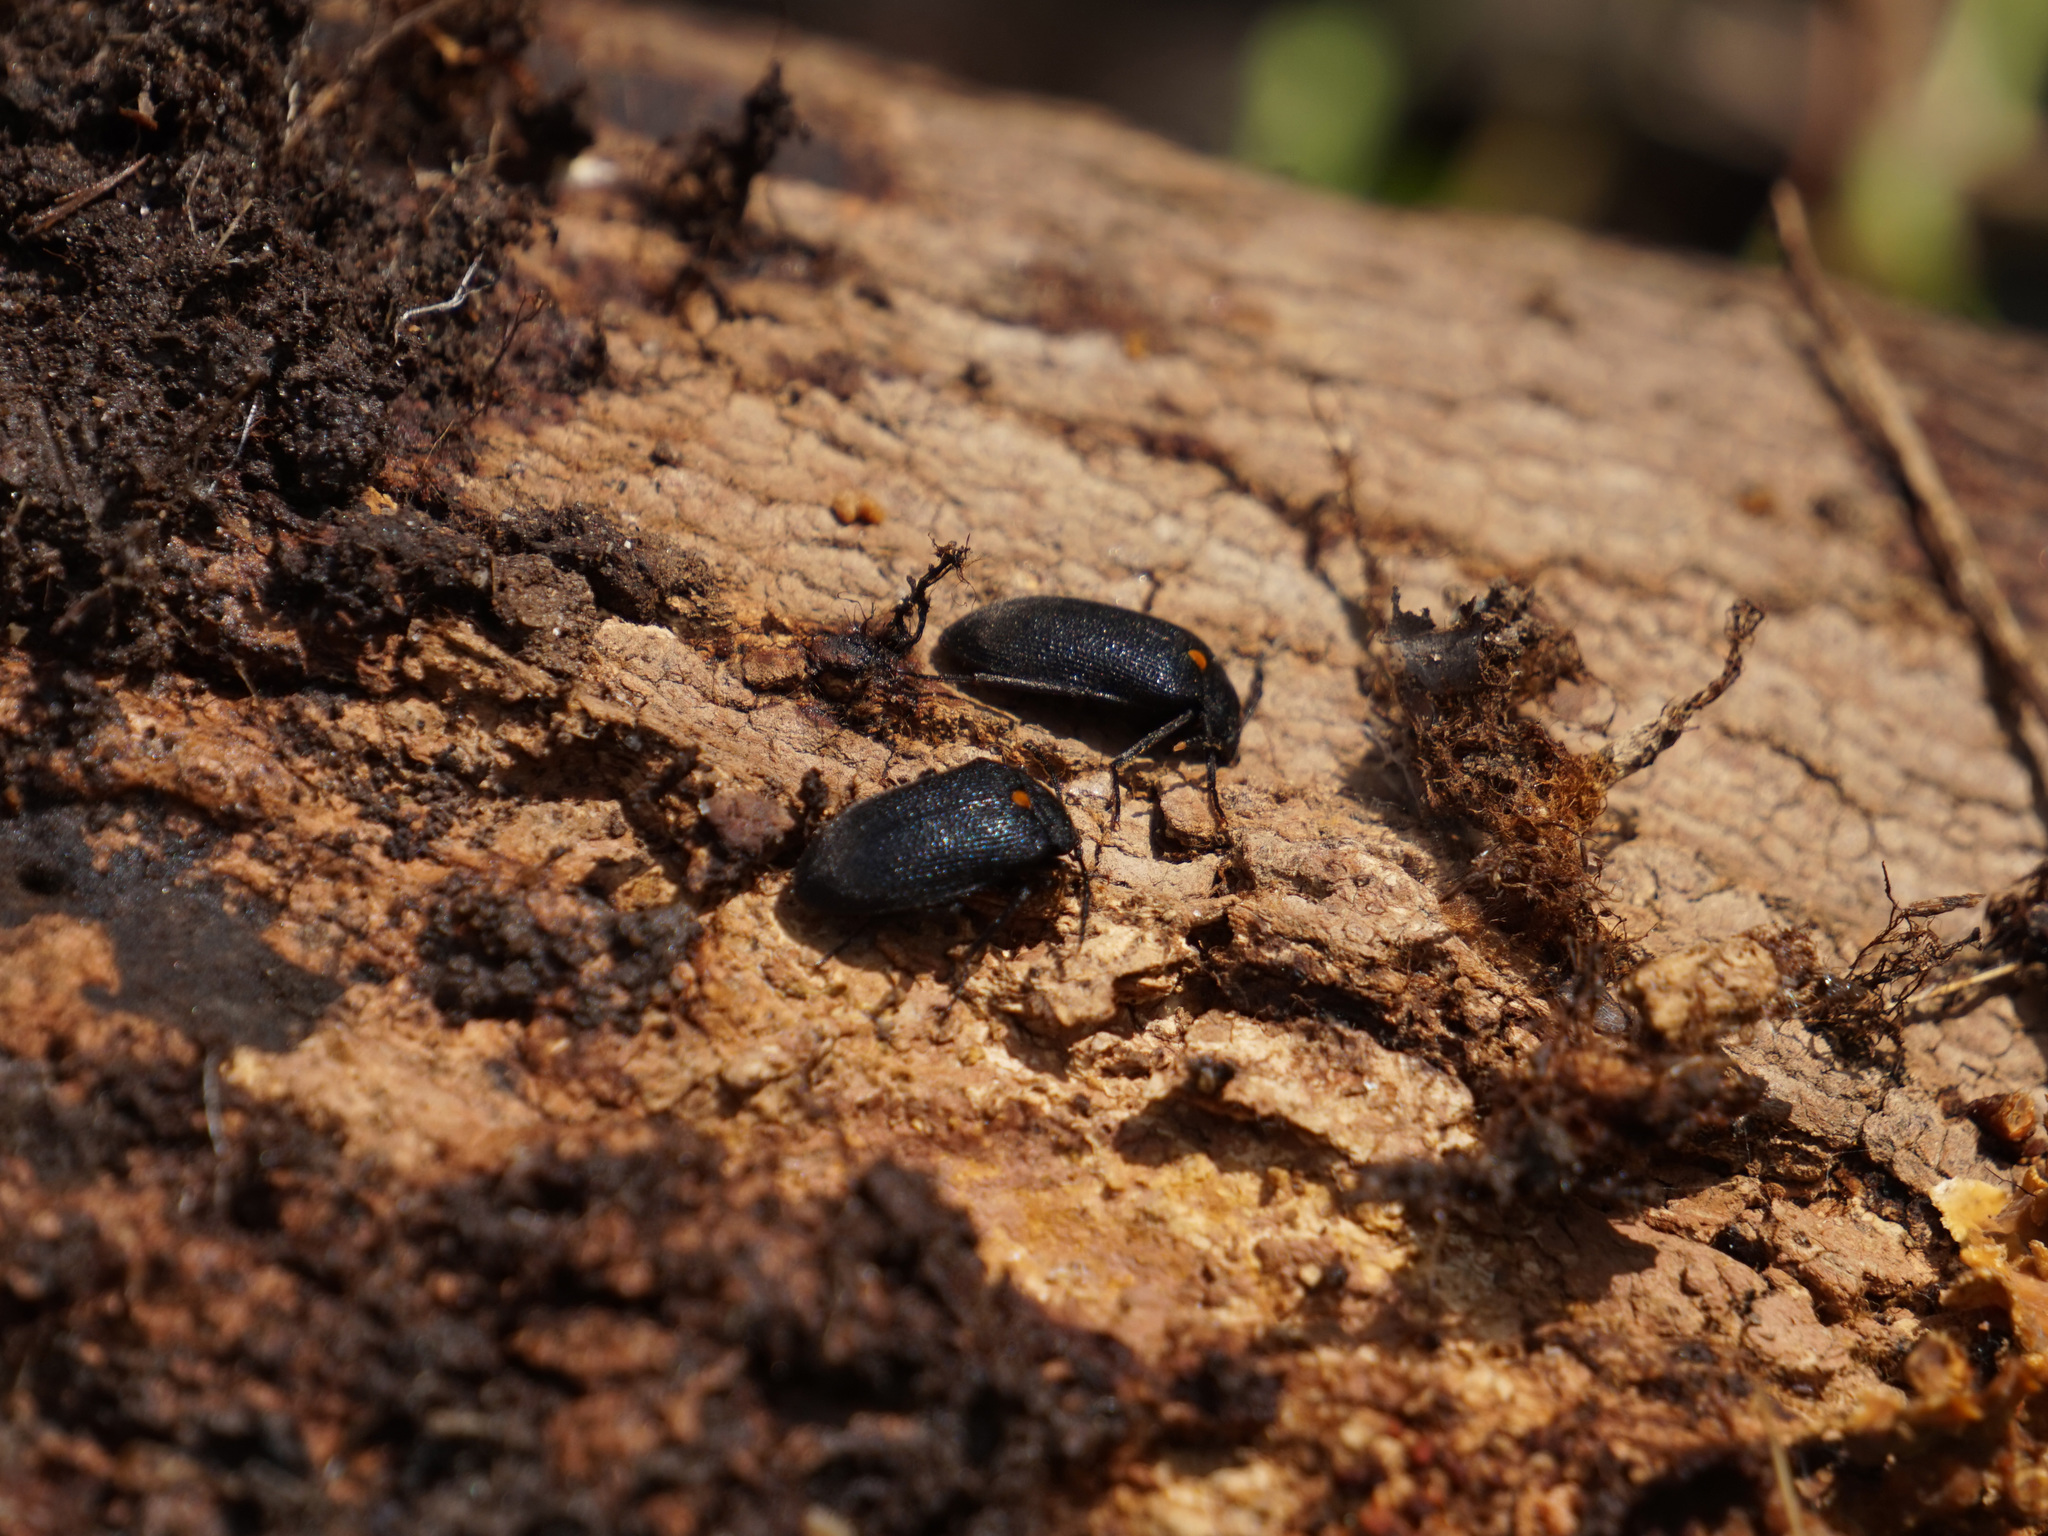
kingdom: Animalia
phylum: Arthropoda
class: Insecta
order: Coleoptera
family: Tetratomidae
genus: Penthe
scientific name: Penthe obliquata
